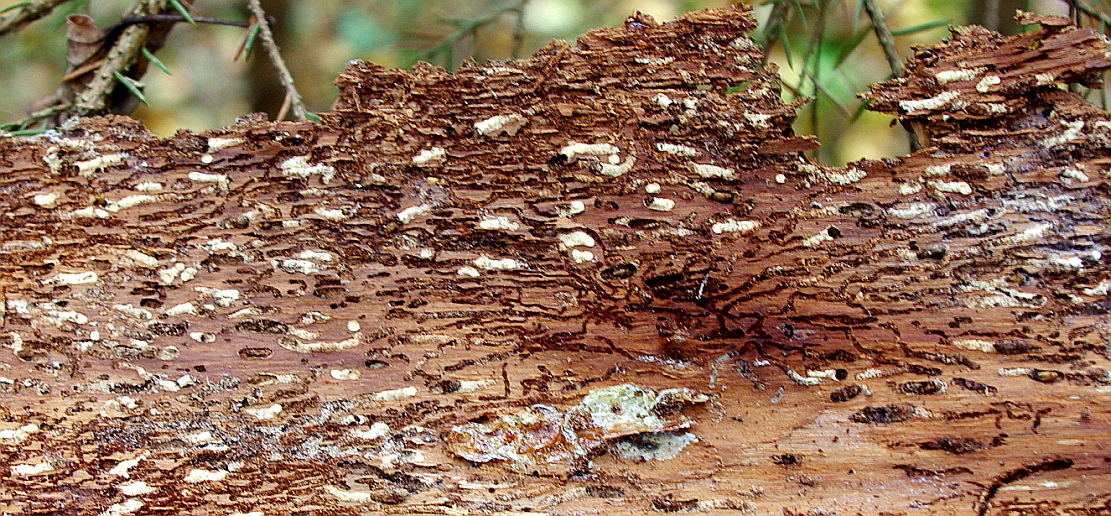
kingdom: Animalia
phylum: Arthropoda
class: Insecta
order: Coleoptera
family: Curculionidae
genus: Ips
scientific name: Ips typographus
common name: Eight-toothed spruce bark beetle
